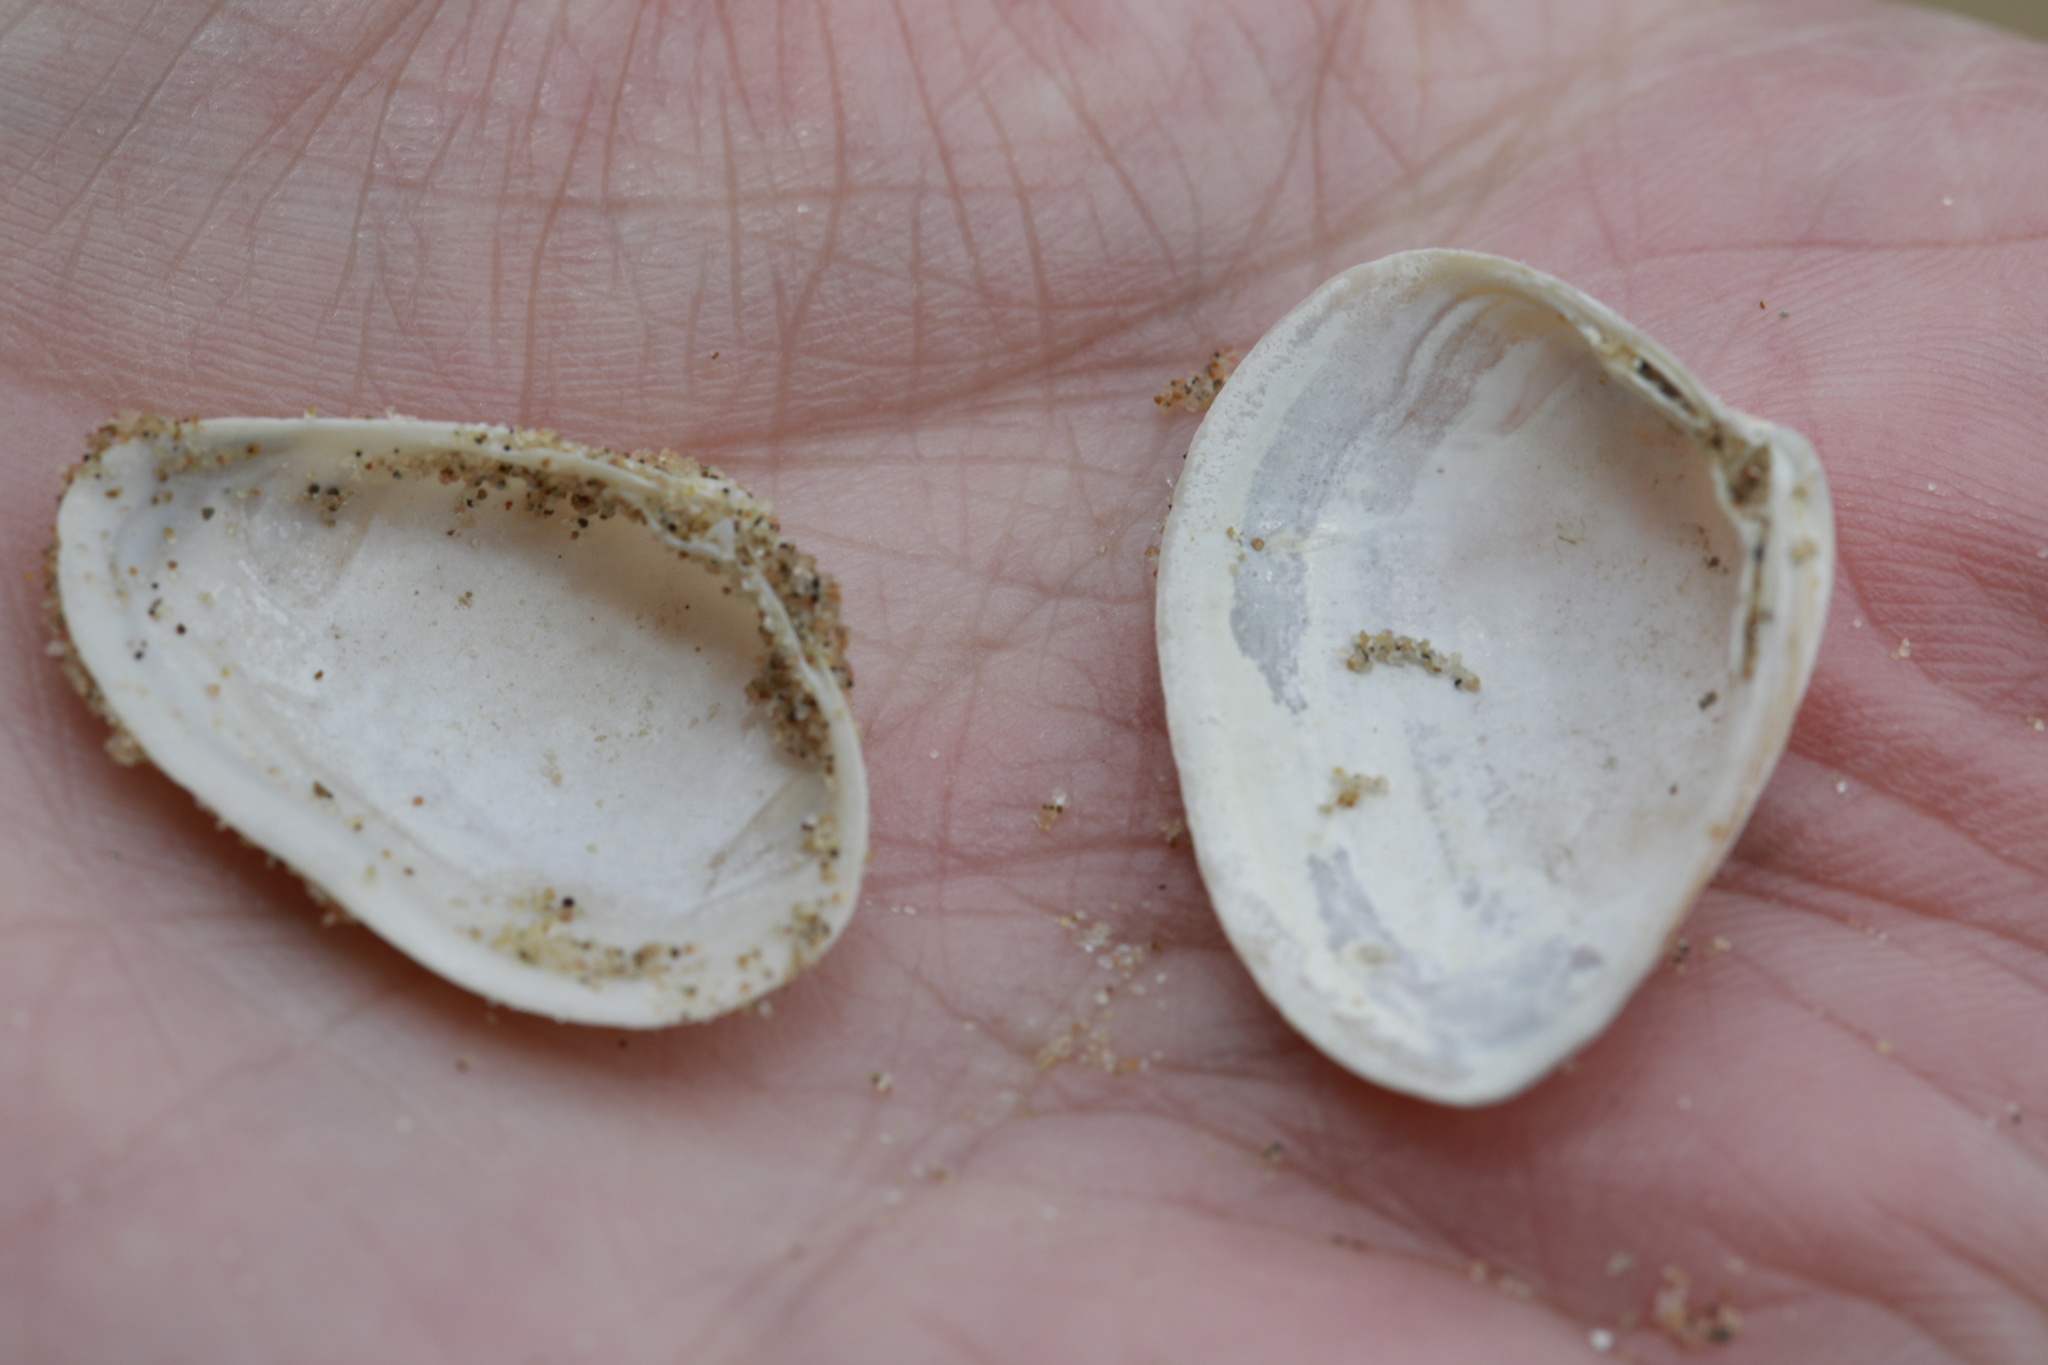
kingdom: Animalia
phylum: Mollusca
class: Bivalvia
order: Venerida
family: Mactridae
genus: Spisula
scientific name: Spisula subtruncata
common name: Cut trough shell
